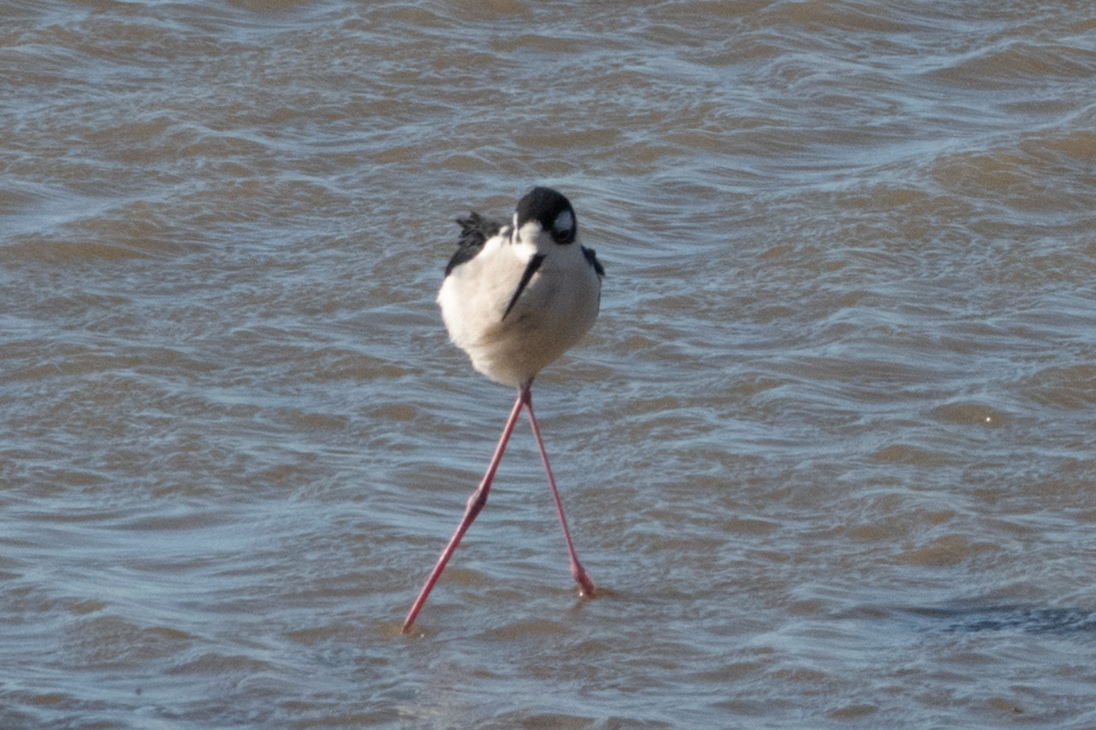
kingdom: Animalia
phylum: Chordata
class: Aves
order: Charadriiformes
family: Recurvirostridae
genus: Himantopus
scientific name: Himantopus mexicanus
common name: Black-necked stilt
